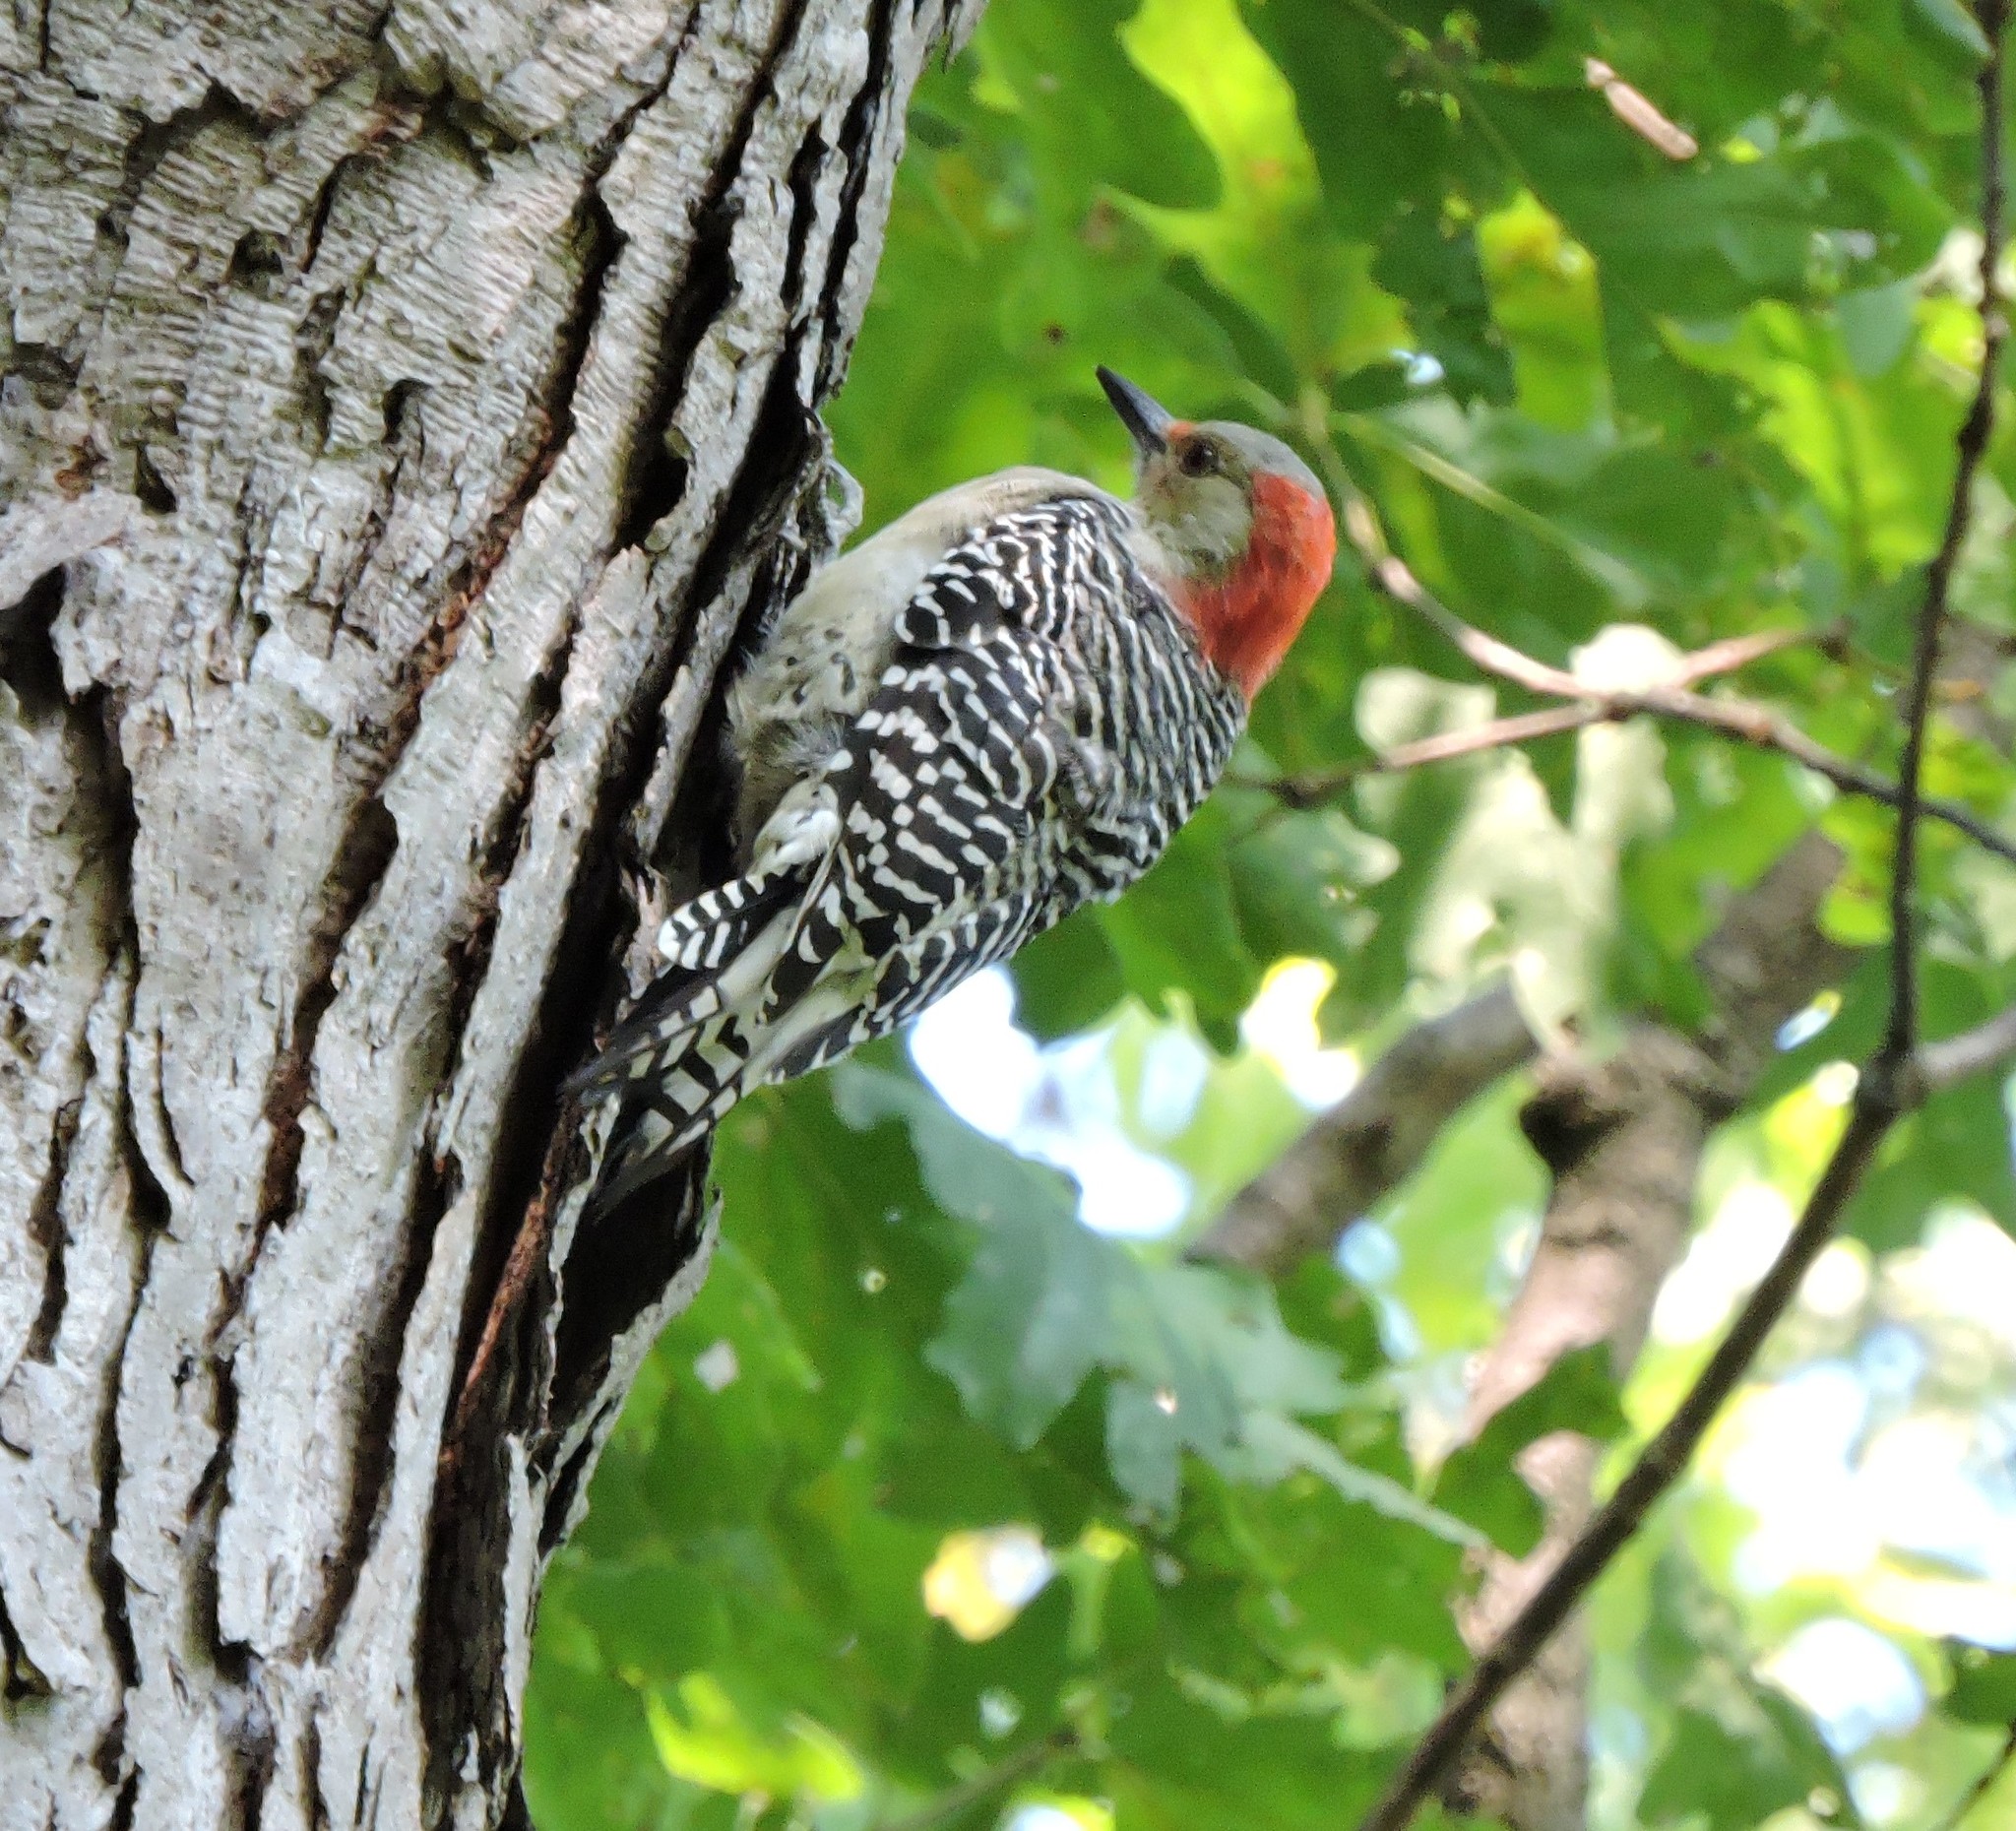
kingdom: Animalia
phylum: Chordata
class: Aves
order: Piciformes
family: Picidae
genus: Melanerpes
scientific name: Melanerpes carolinus
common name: Red-bellied woodpecker
